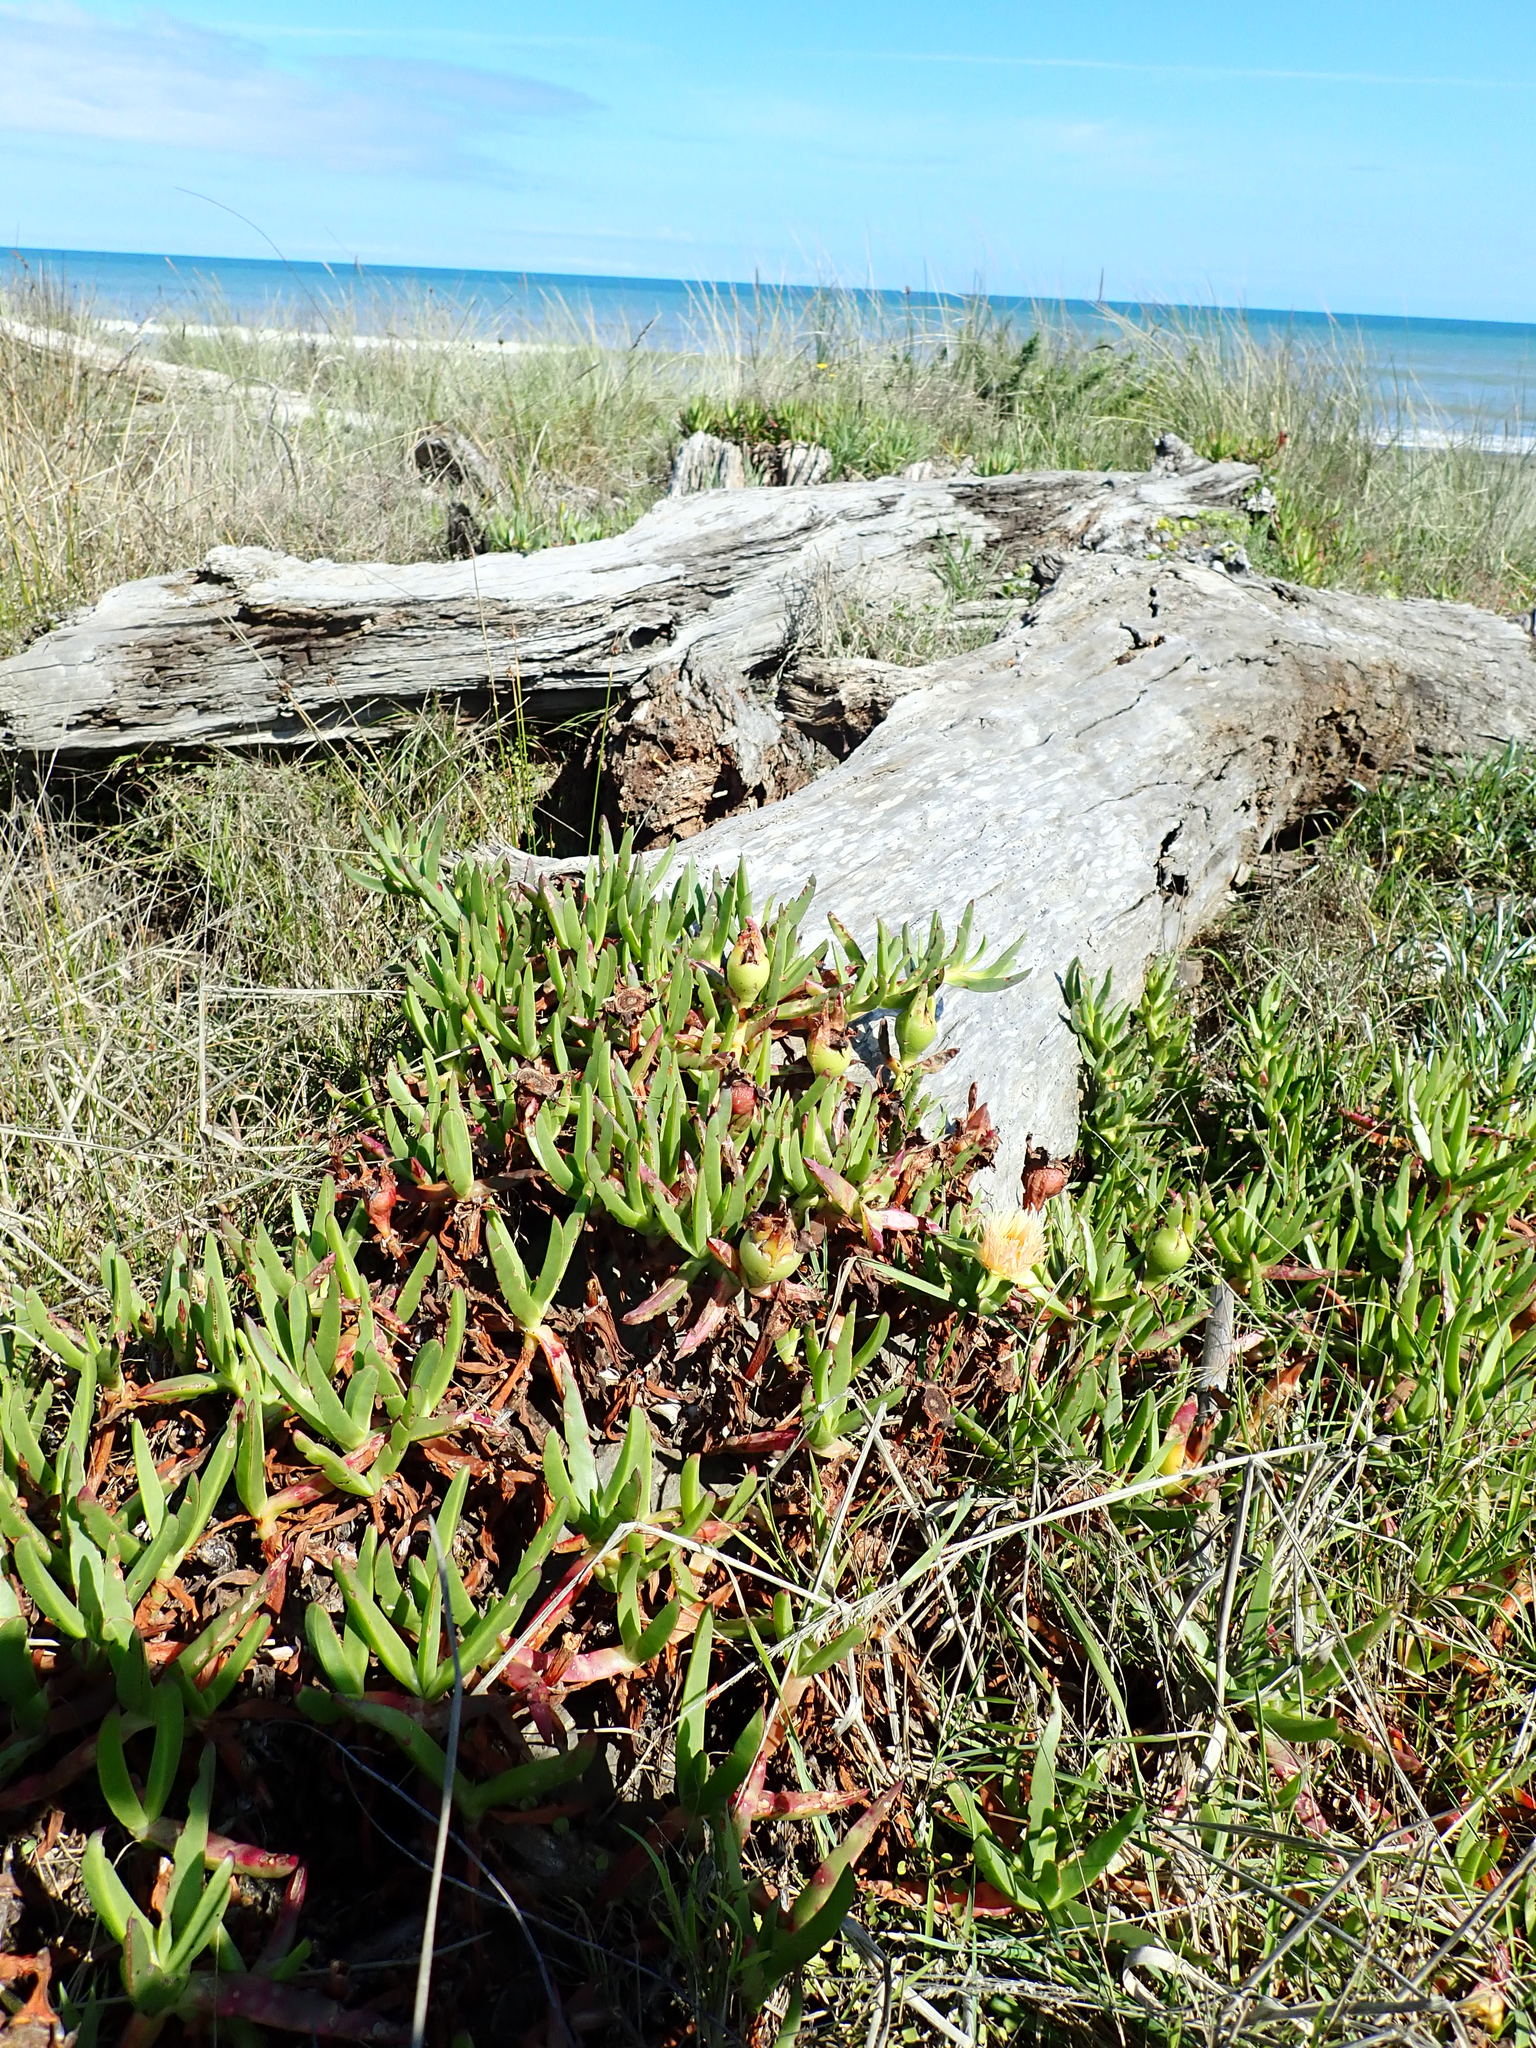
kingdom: Plantae
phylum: Tracheophyta
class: Magnoliopsida
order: Caryophyllales
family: Aizoaceae
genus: Carpobrotus
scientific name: Carpobrotus edulis
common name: Hottentot-fig
